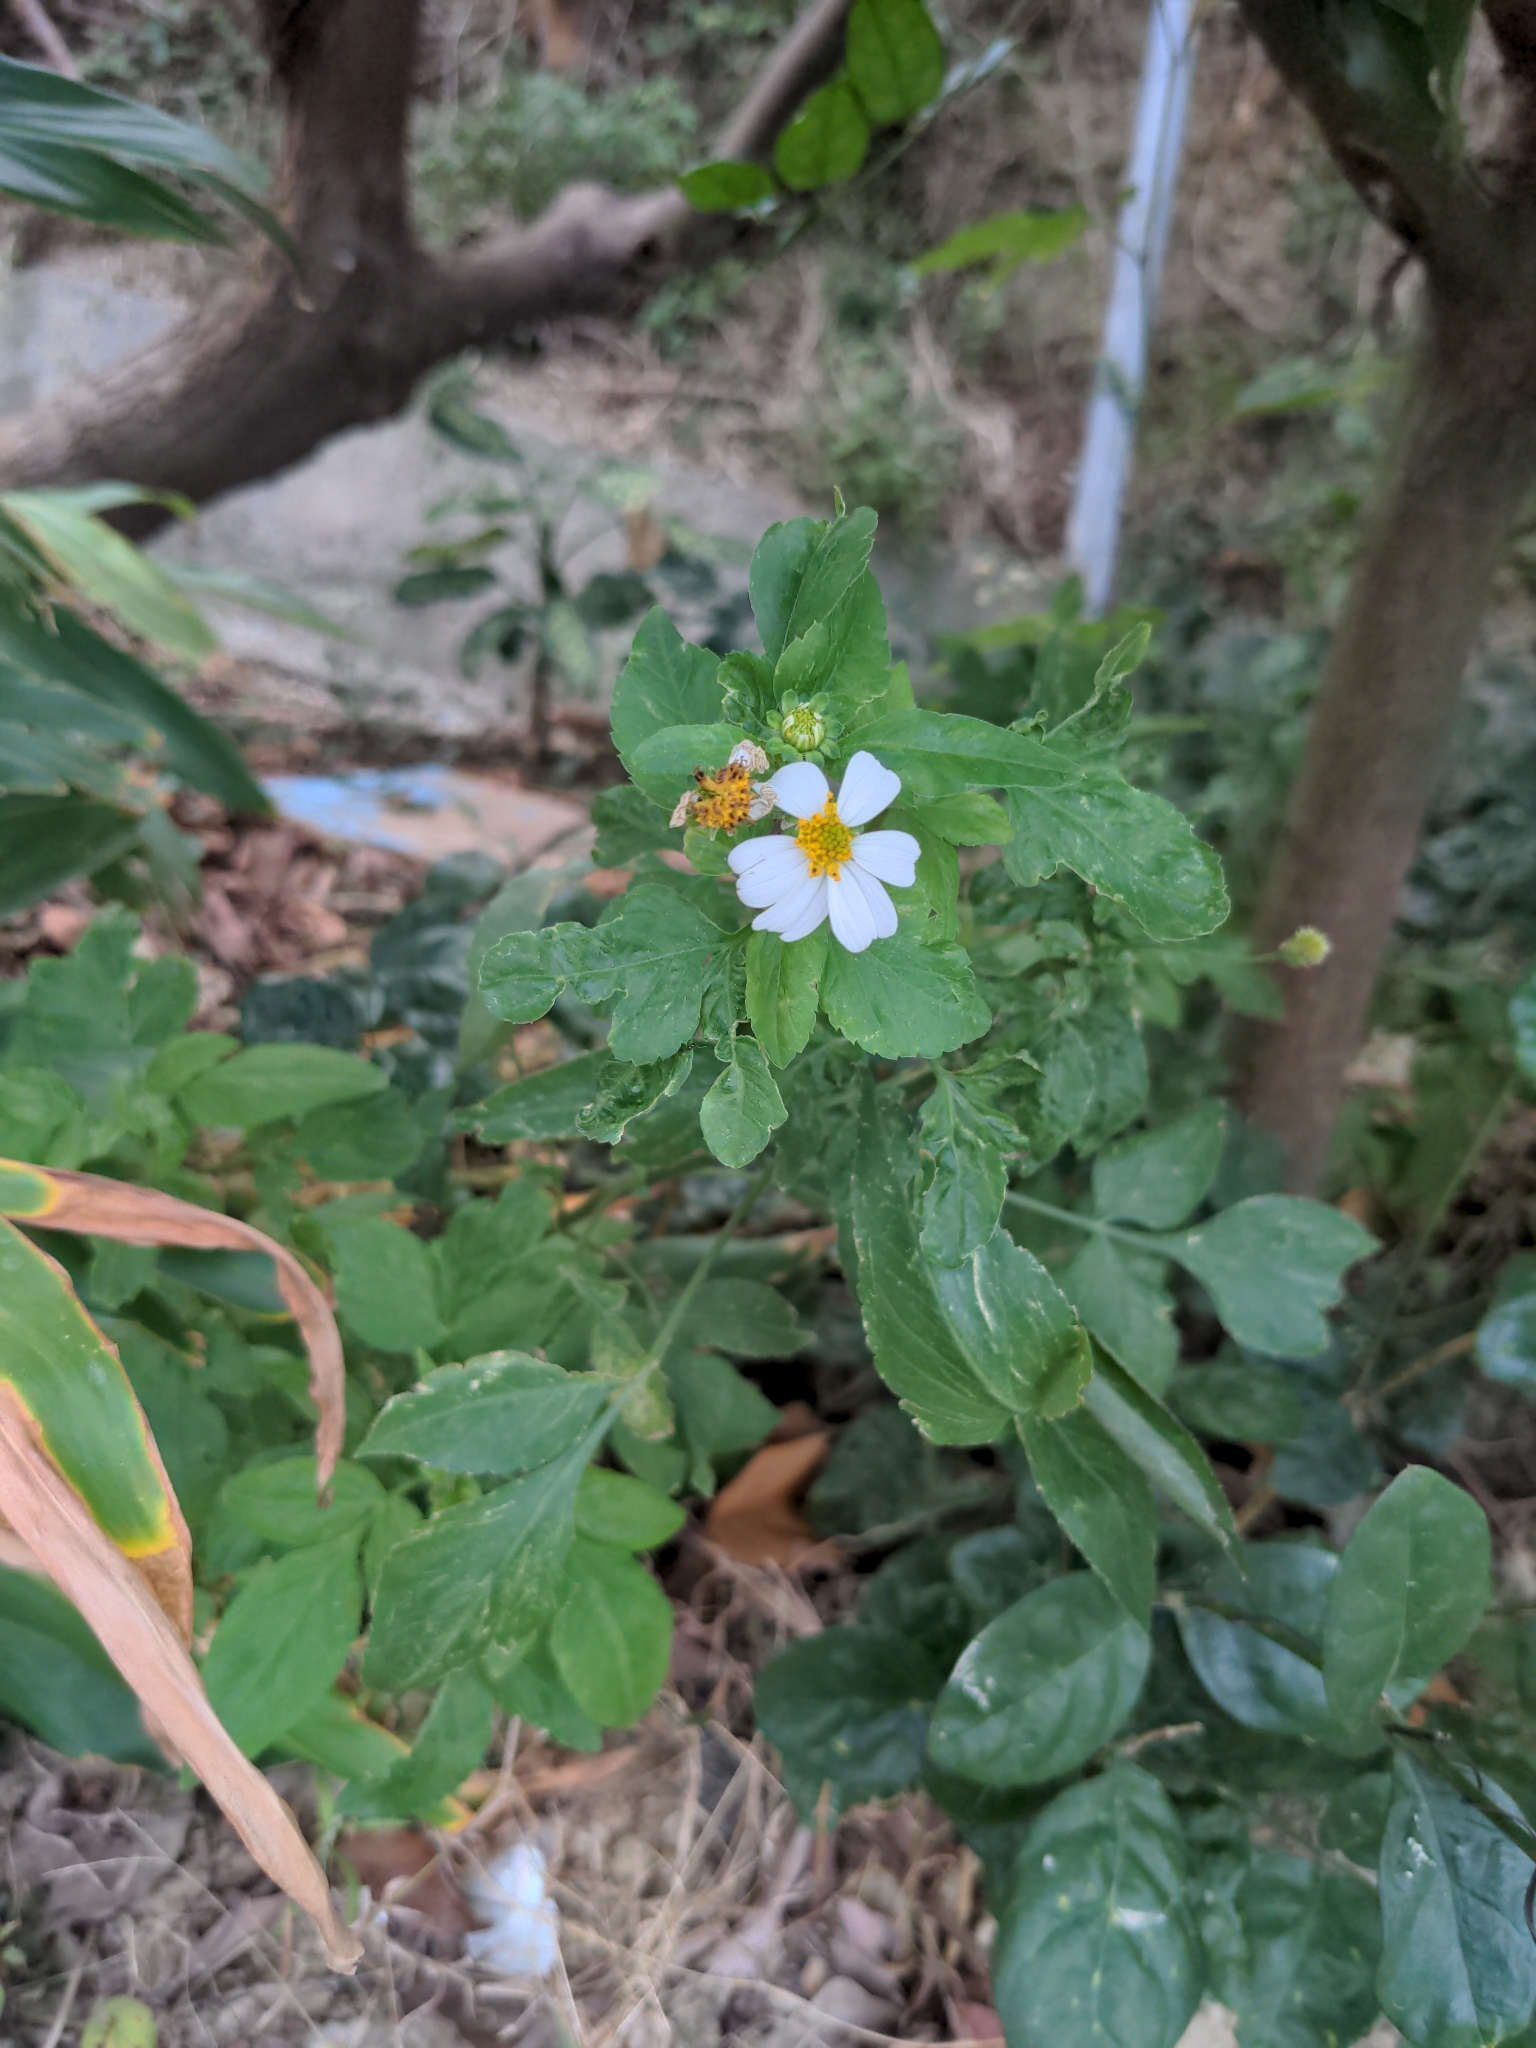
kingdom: Plantae
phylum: Tracheophyta
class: Magnoliopsida
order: Asterales
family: Asteraceae
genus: Bidens
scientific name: Bidens alba
